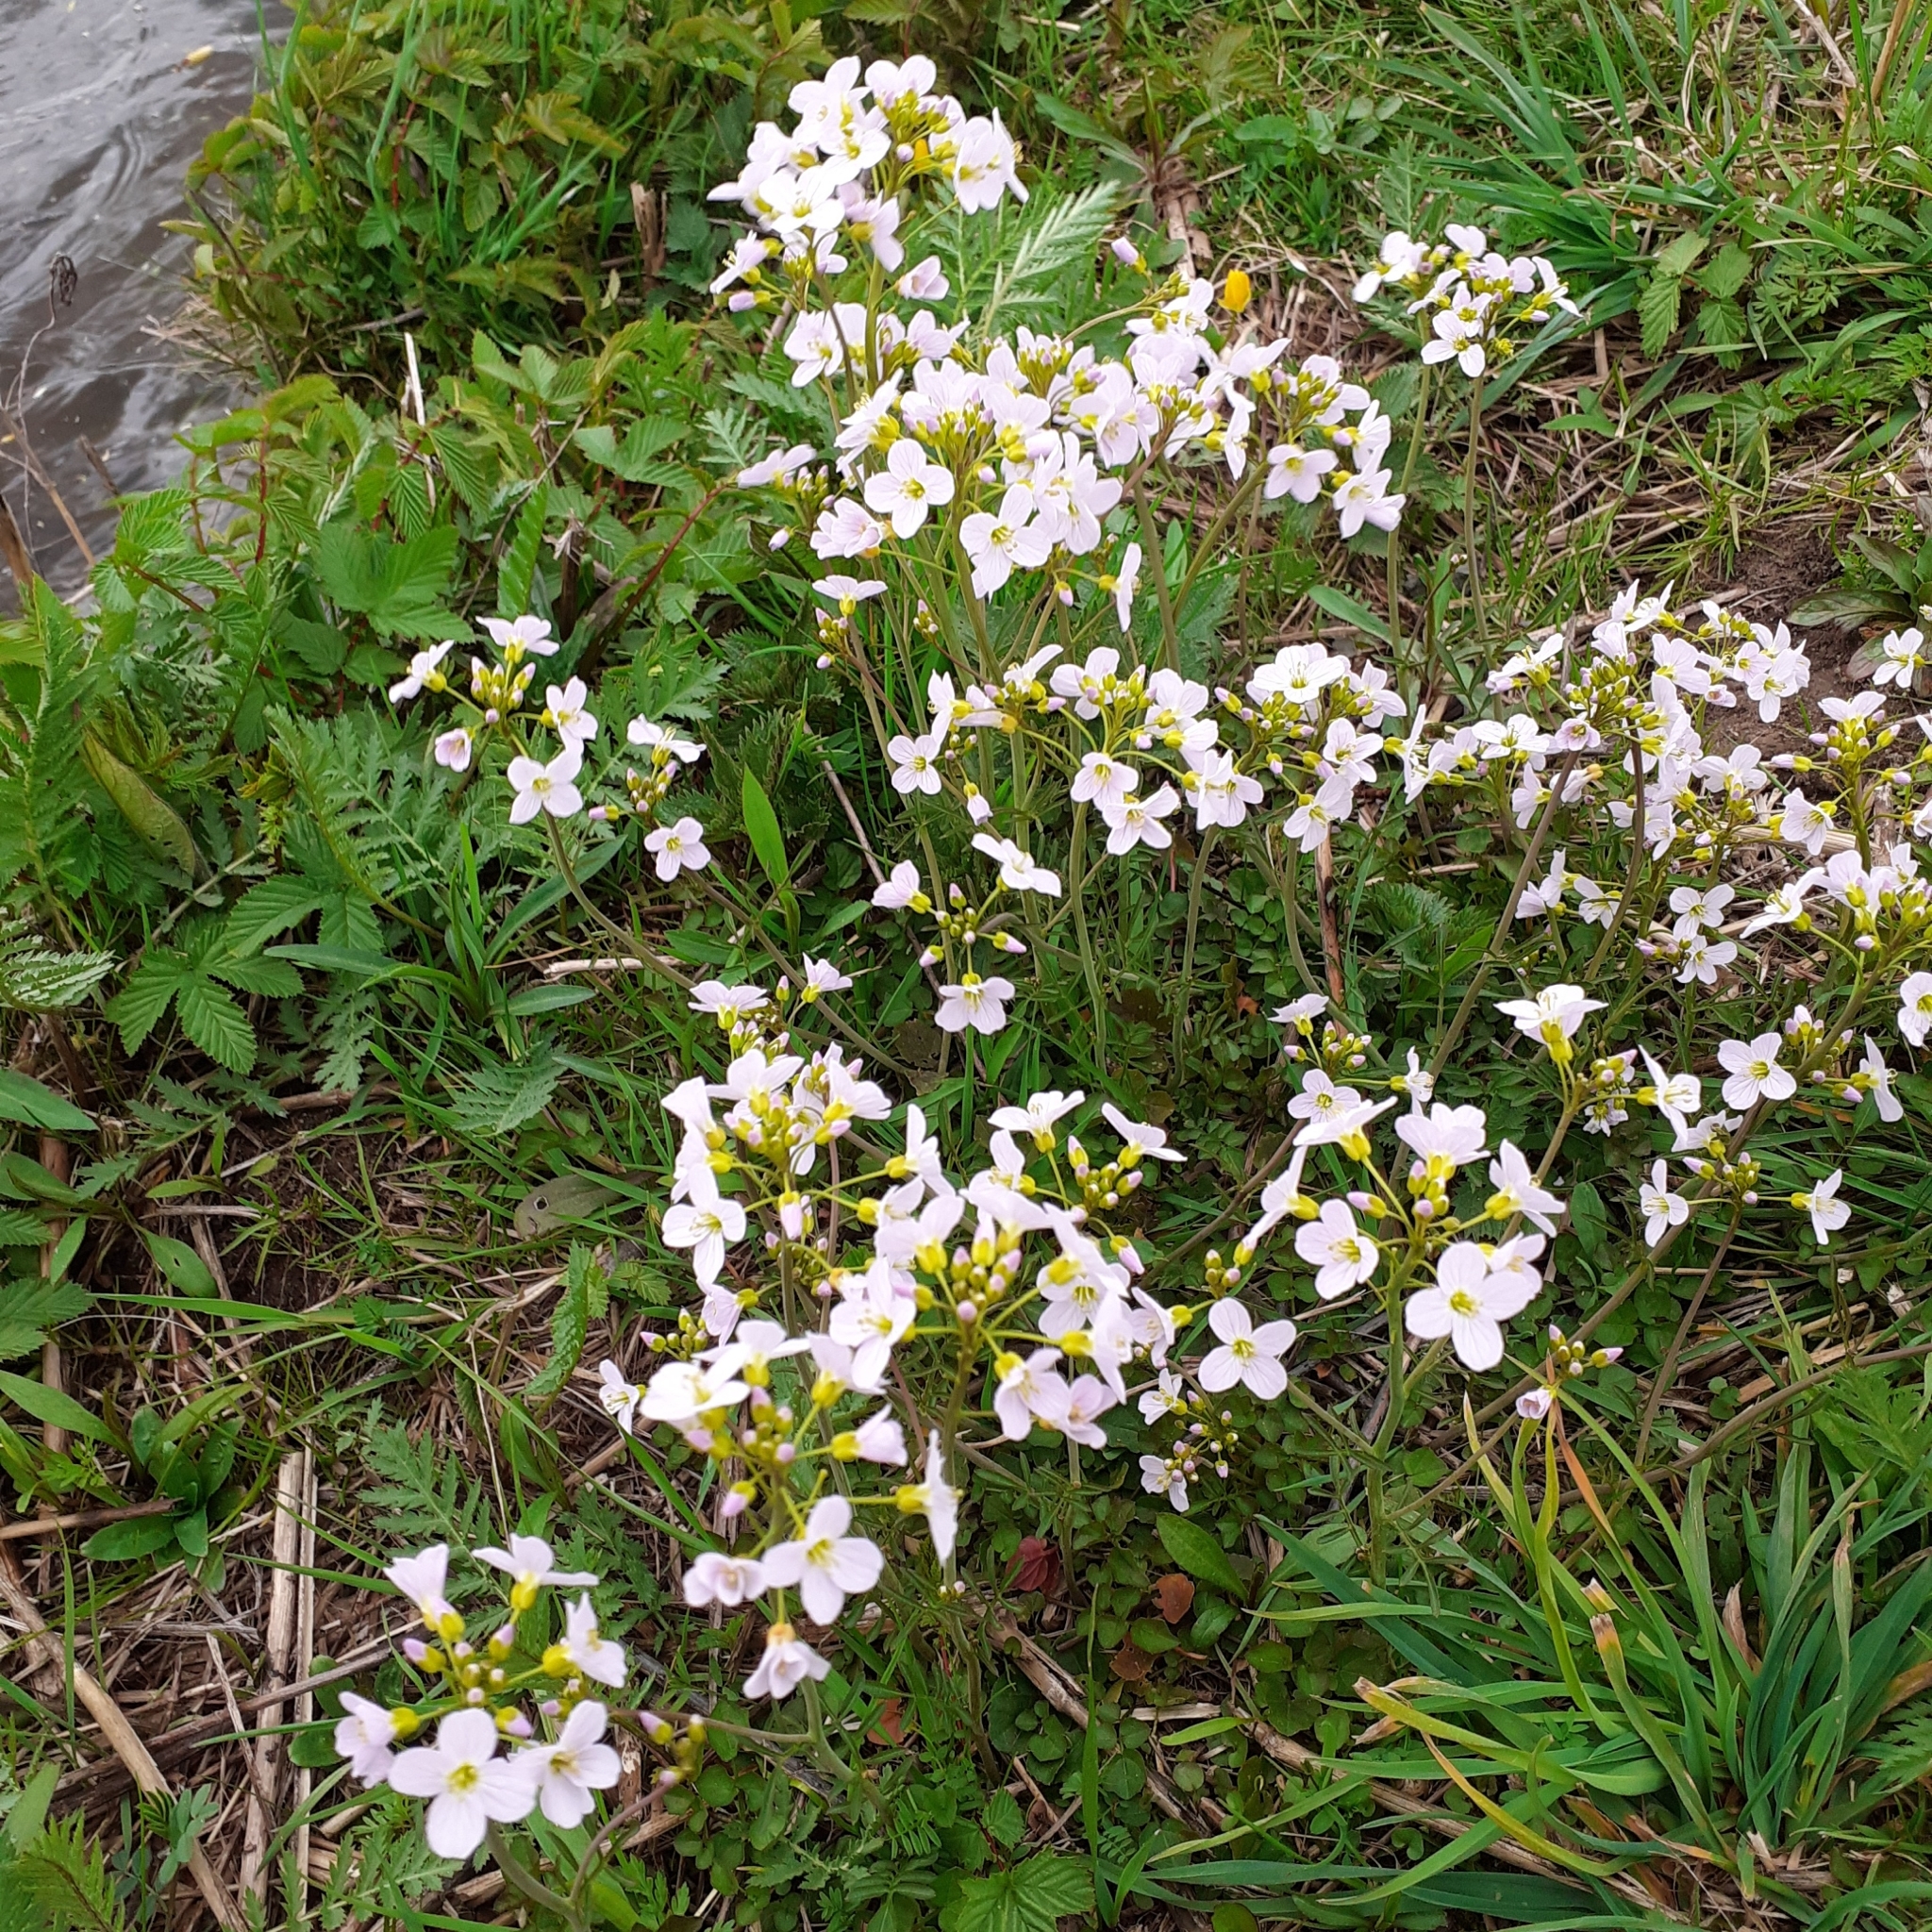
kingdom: Plantae
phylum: Tracheophyta
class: Magnoliopsida
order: Brassicales
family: Brassicaceae
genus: Cardamine
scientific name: Cardamine pratensis
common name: Cuckoo flower
